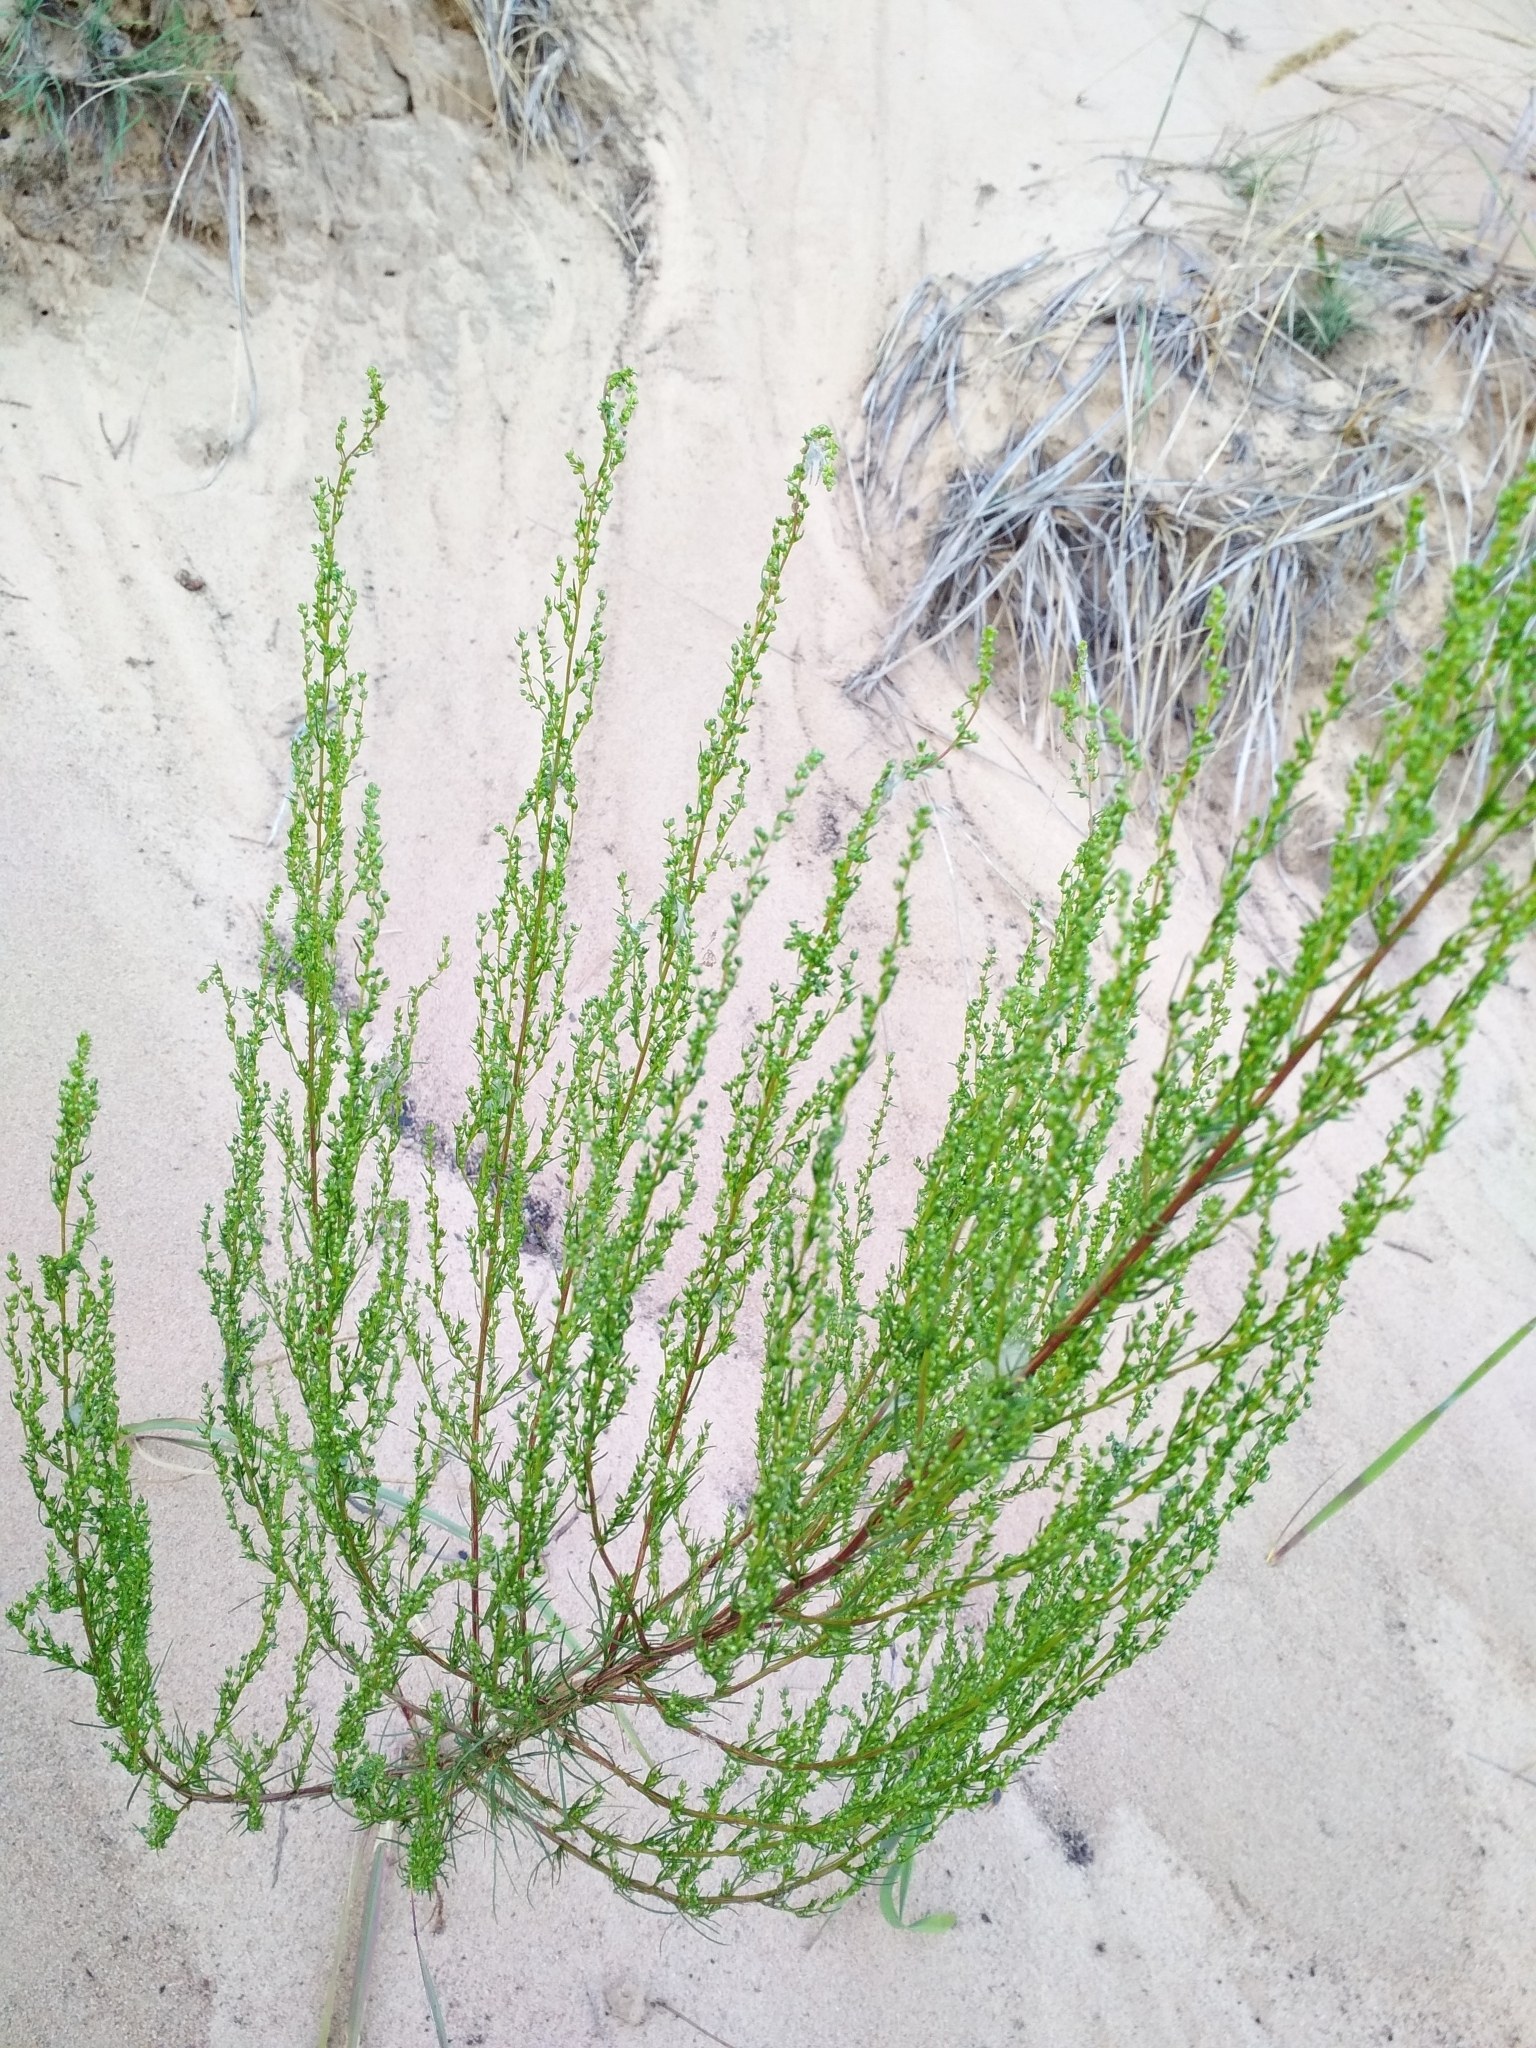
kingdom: Plantae
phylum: Tracheophyta
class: Magnoliopsida
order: Asterales
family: Asteraceae
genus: Artemisia
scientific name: Artemisia campestris
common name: Field wormwood
